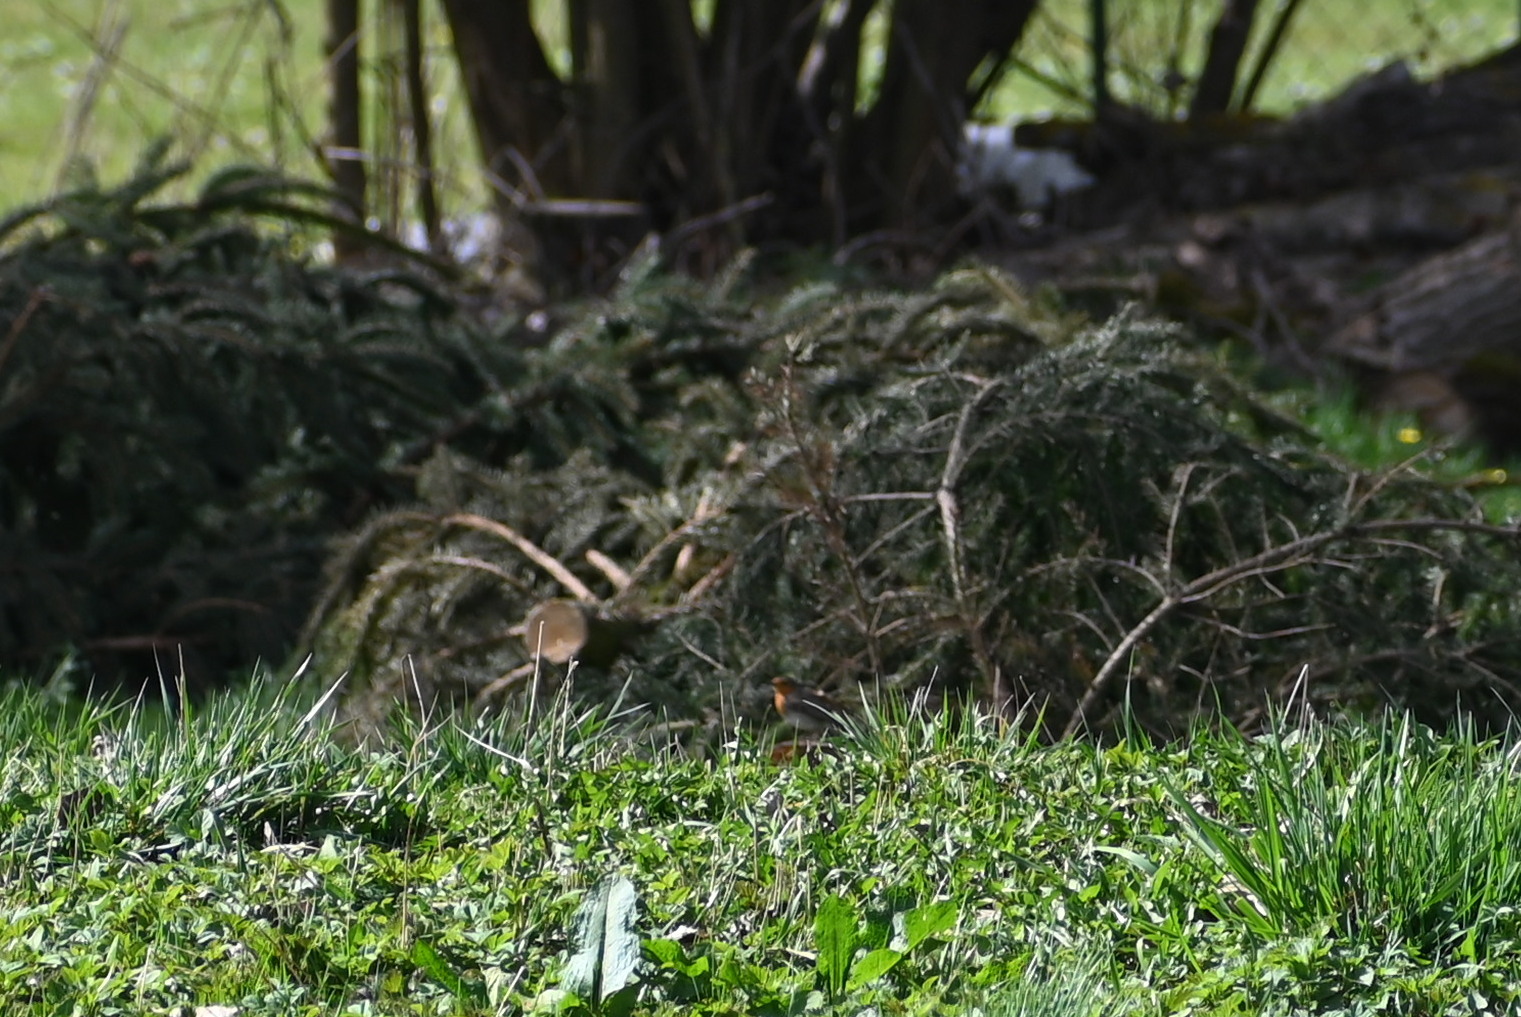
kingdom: Animalia
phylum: Chordata
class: Aves
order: Passeriformes
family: Muscicapidae
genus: Erithacus
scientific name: Erithacus rubecula
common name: European robin
